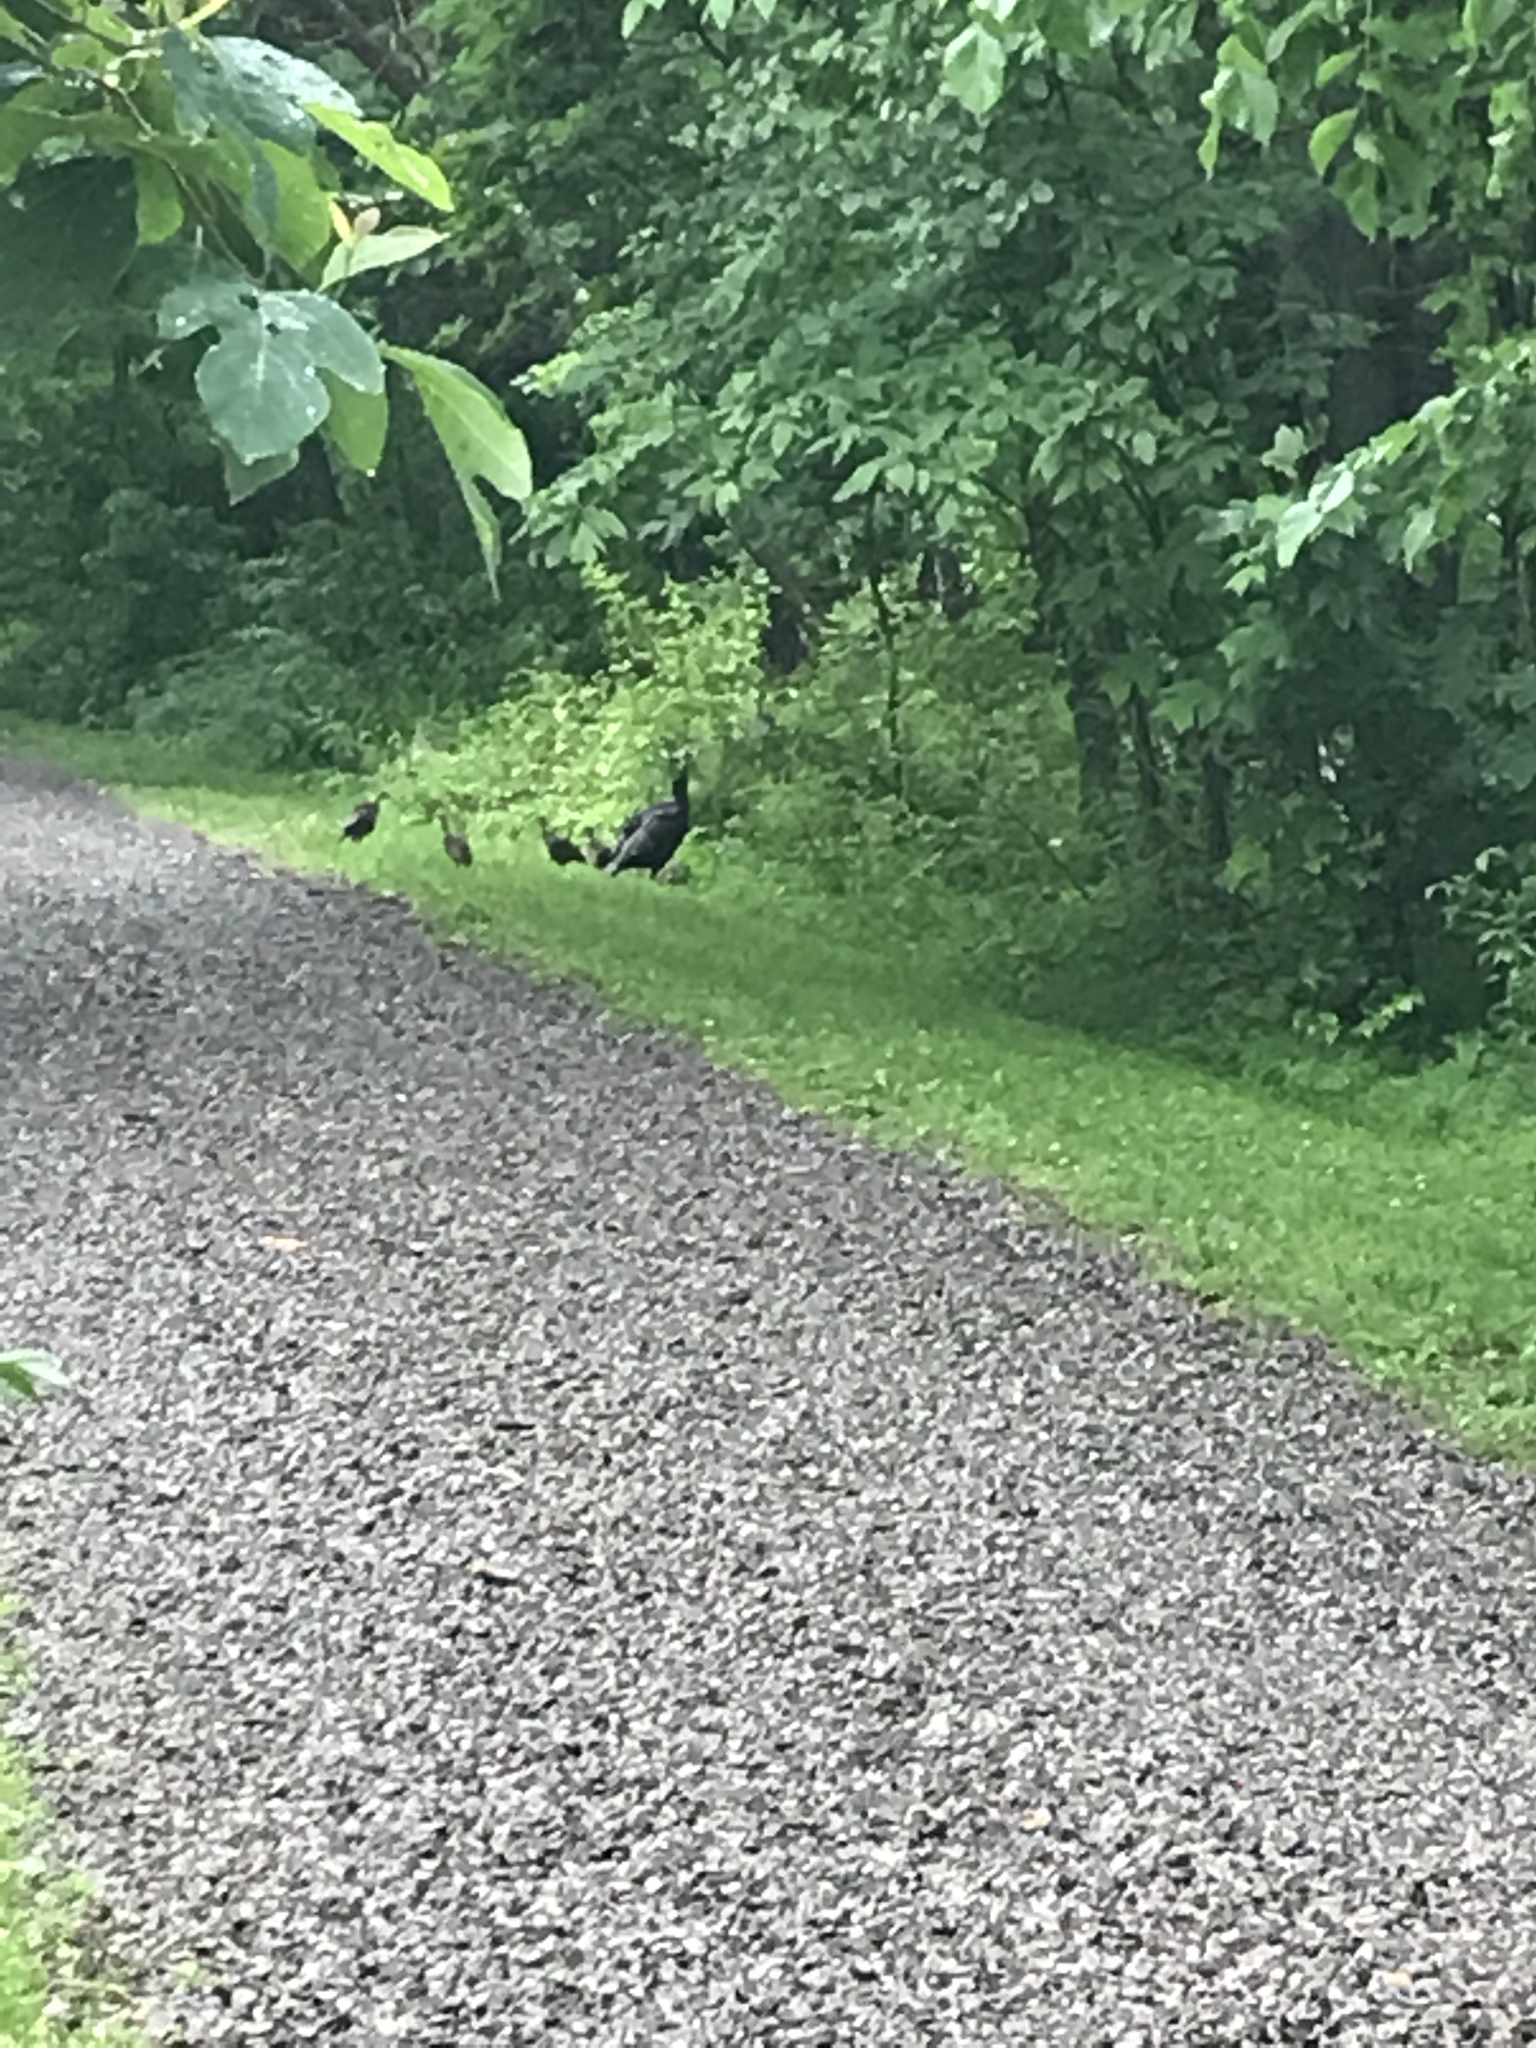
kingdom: Animalia
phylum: Chordata
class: Aves
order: Galliformes
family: Phasianidae
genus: Meleagris
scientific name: Meleagris gallopavo
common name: Wild turkey
